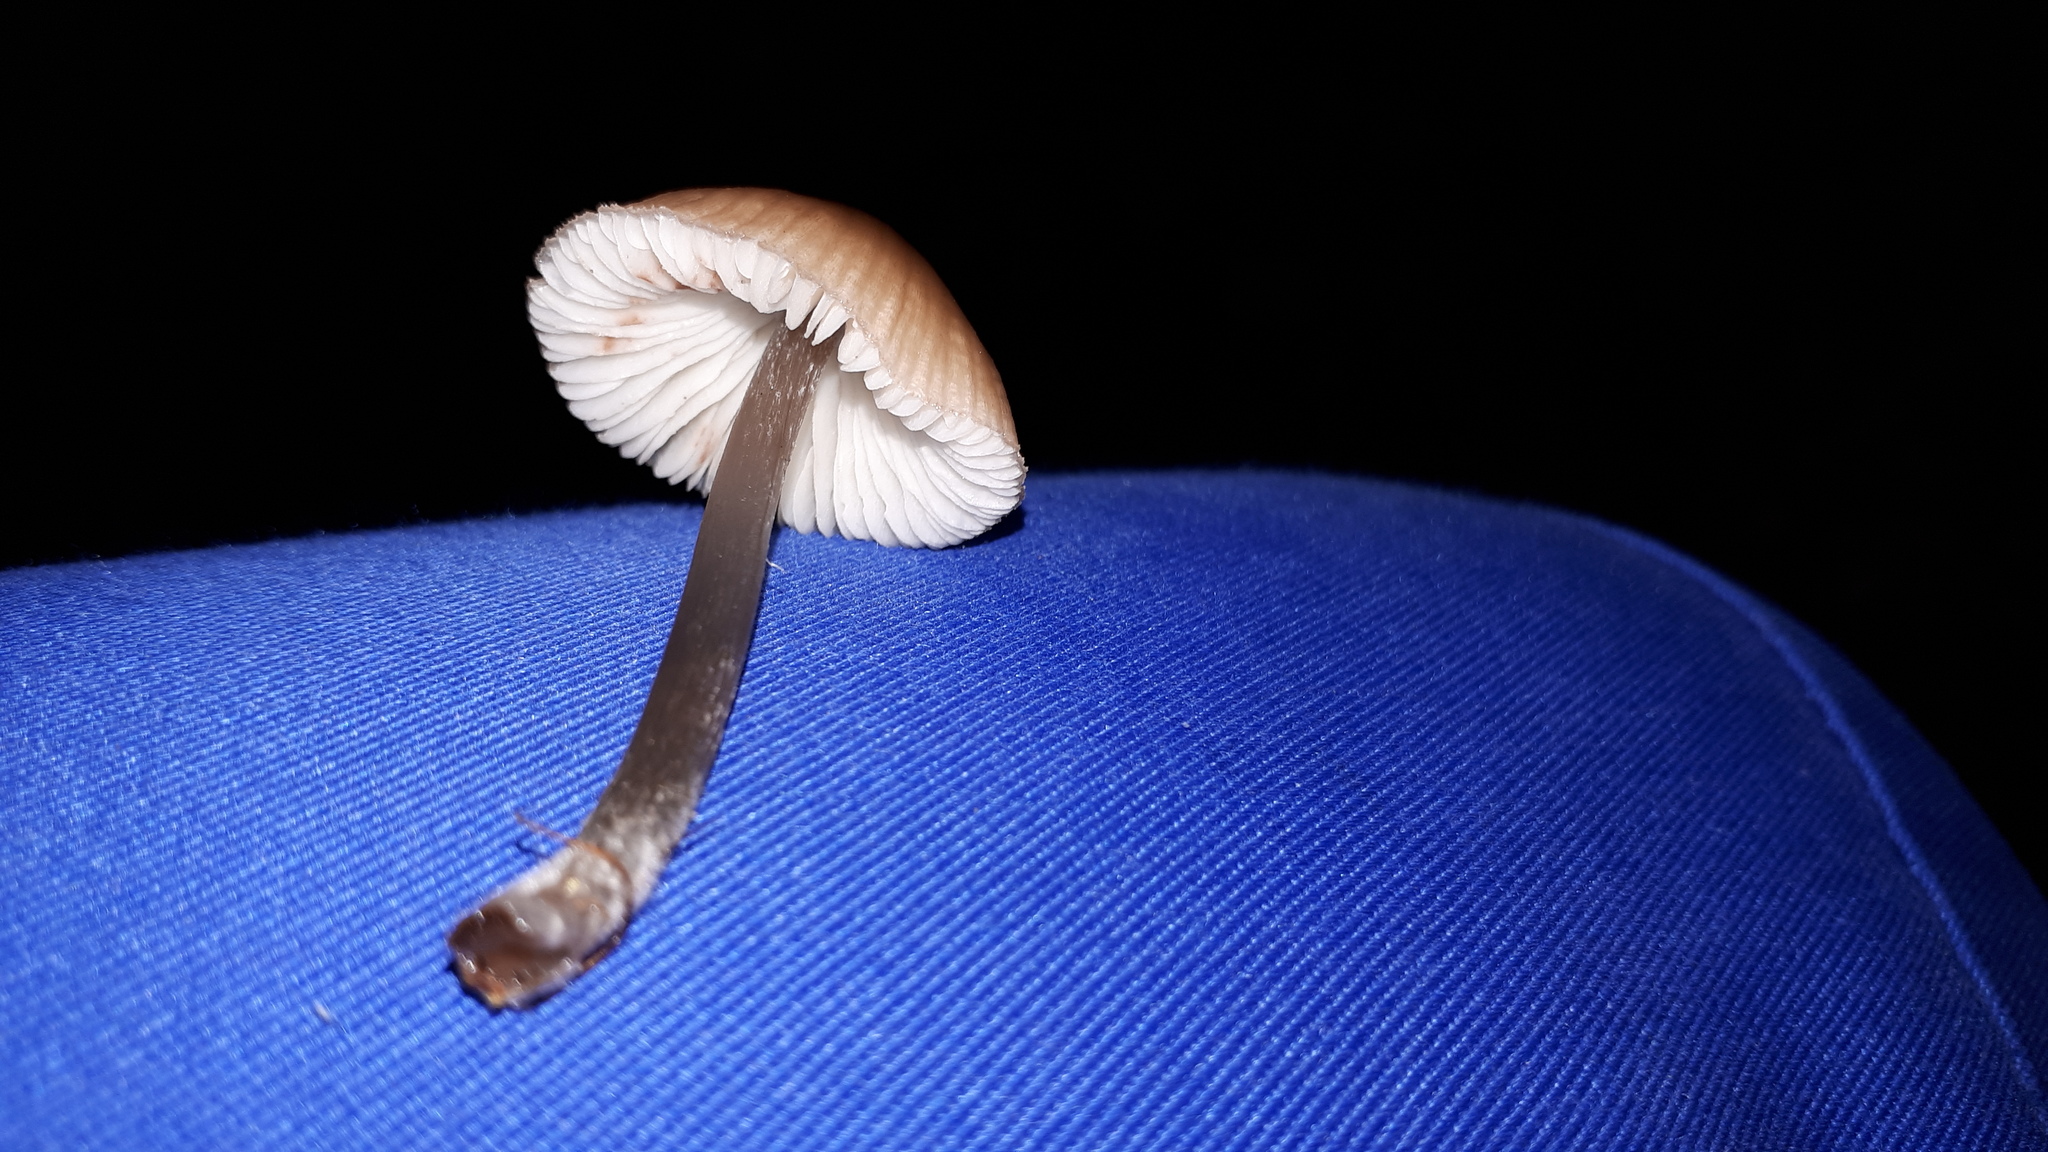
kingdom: Fungi
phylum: Basidiomycota
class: Agaricomycetes
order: Agaricales
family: Mycenaceae
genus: Mycena
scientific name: Mycena zephirus
